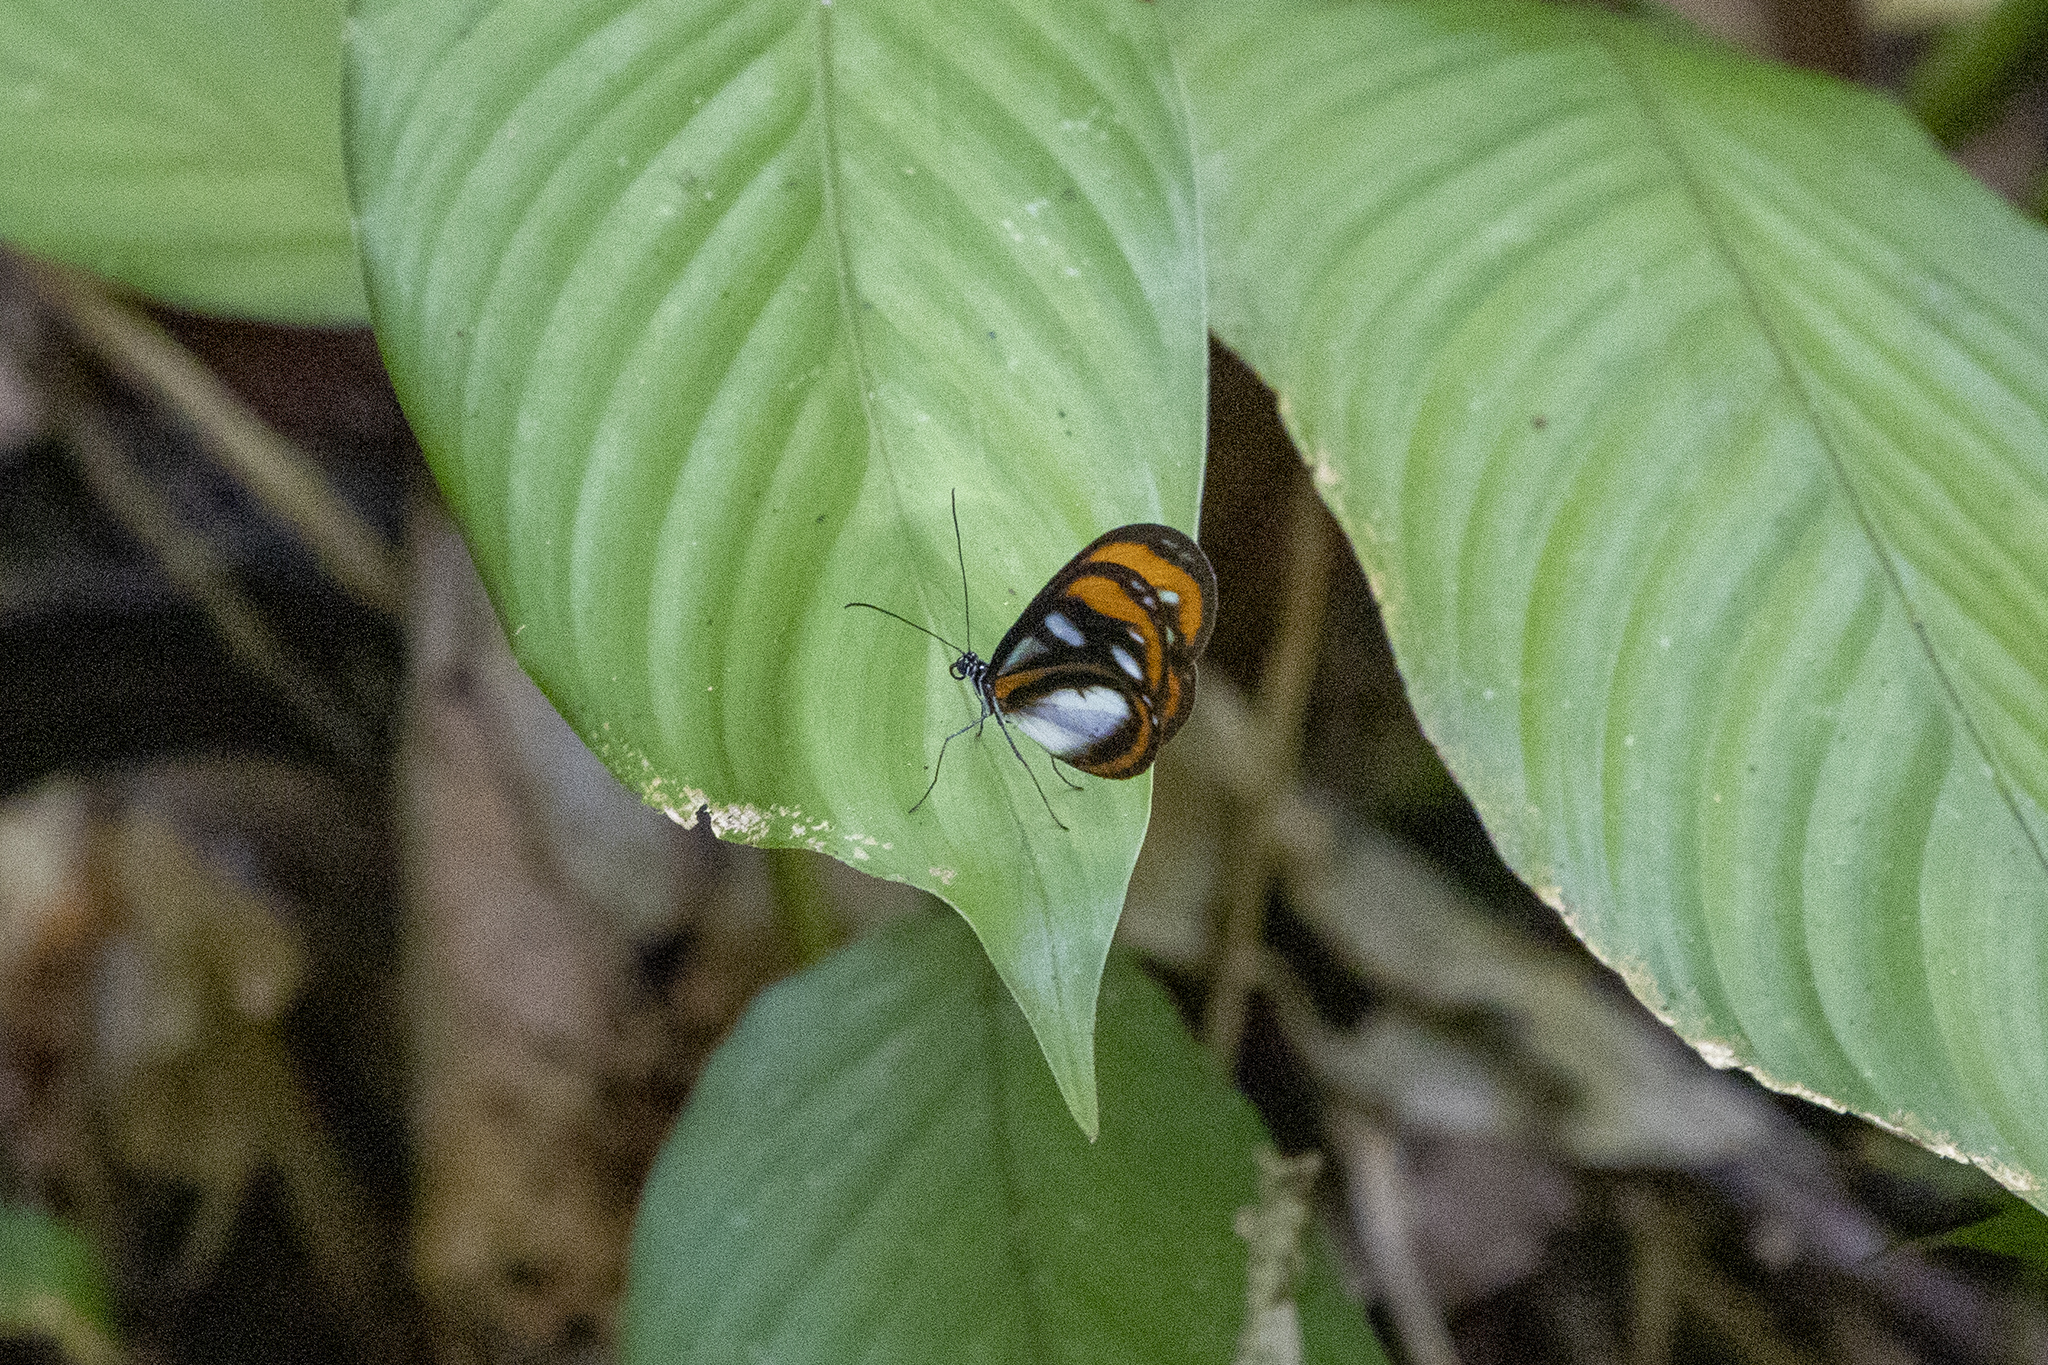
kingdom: Animalia
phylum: Arthropoda
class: Insecta
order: Lepidoptera
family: Nymphalidae
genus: Oleria
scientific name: Oleria ilerdina
